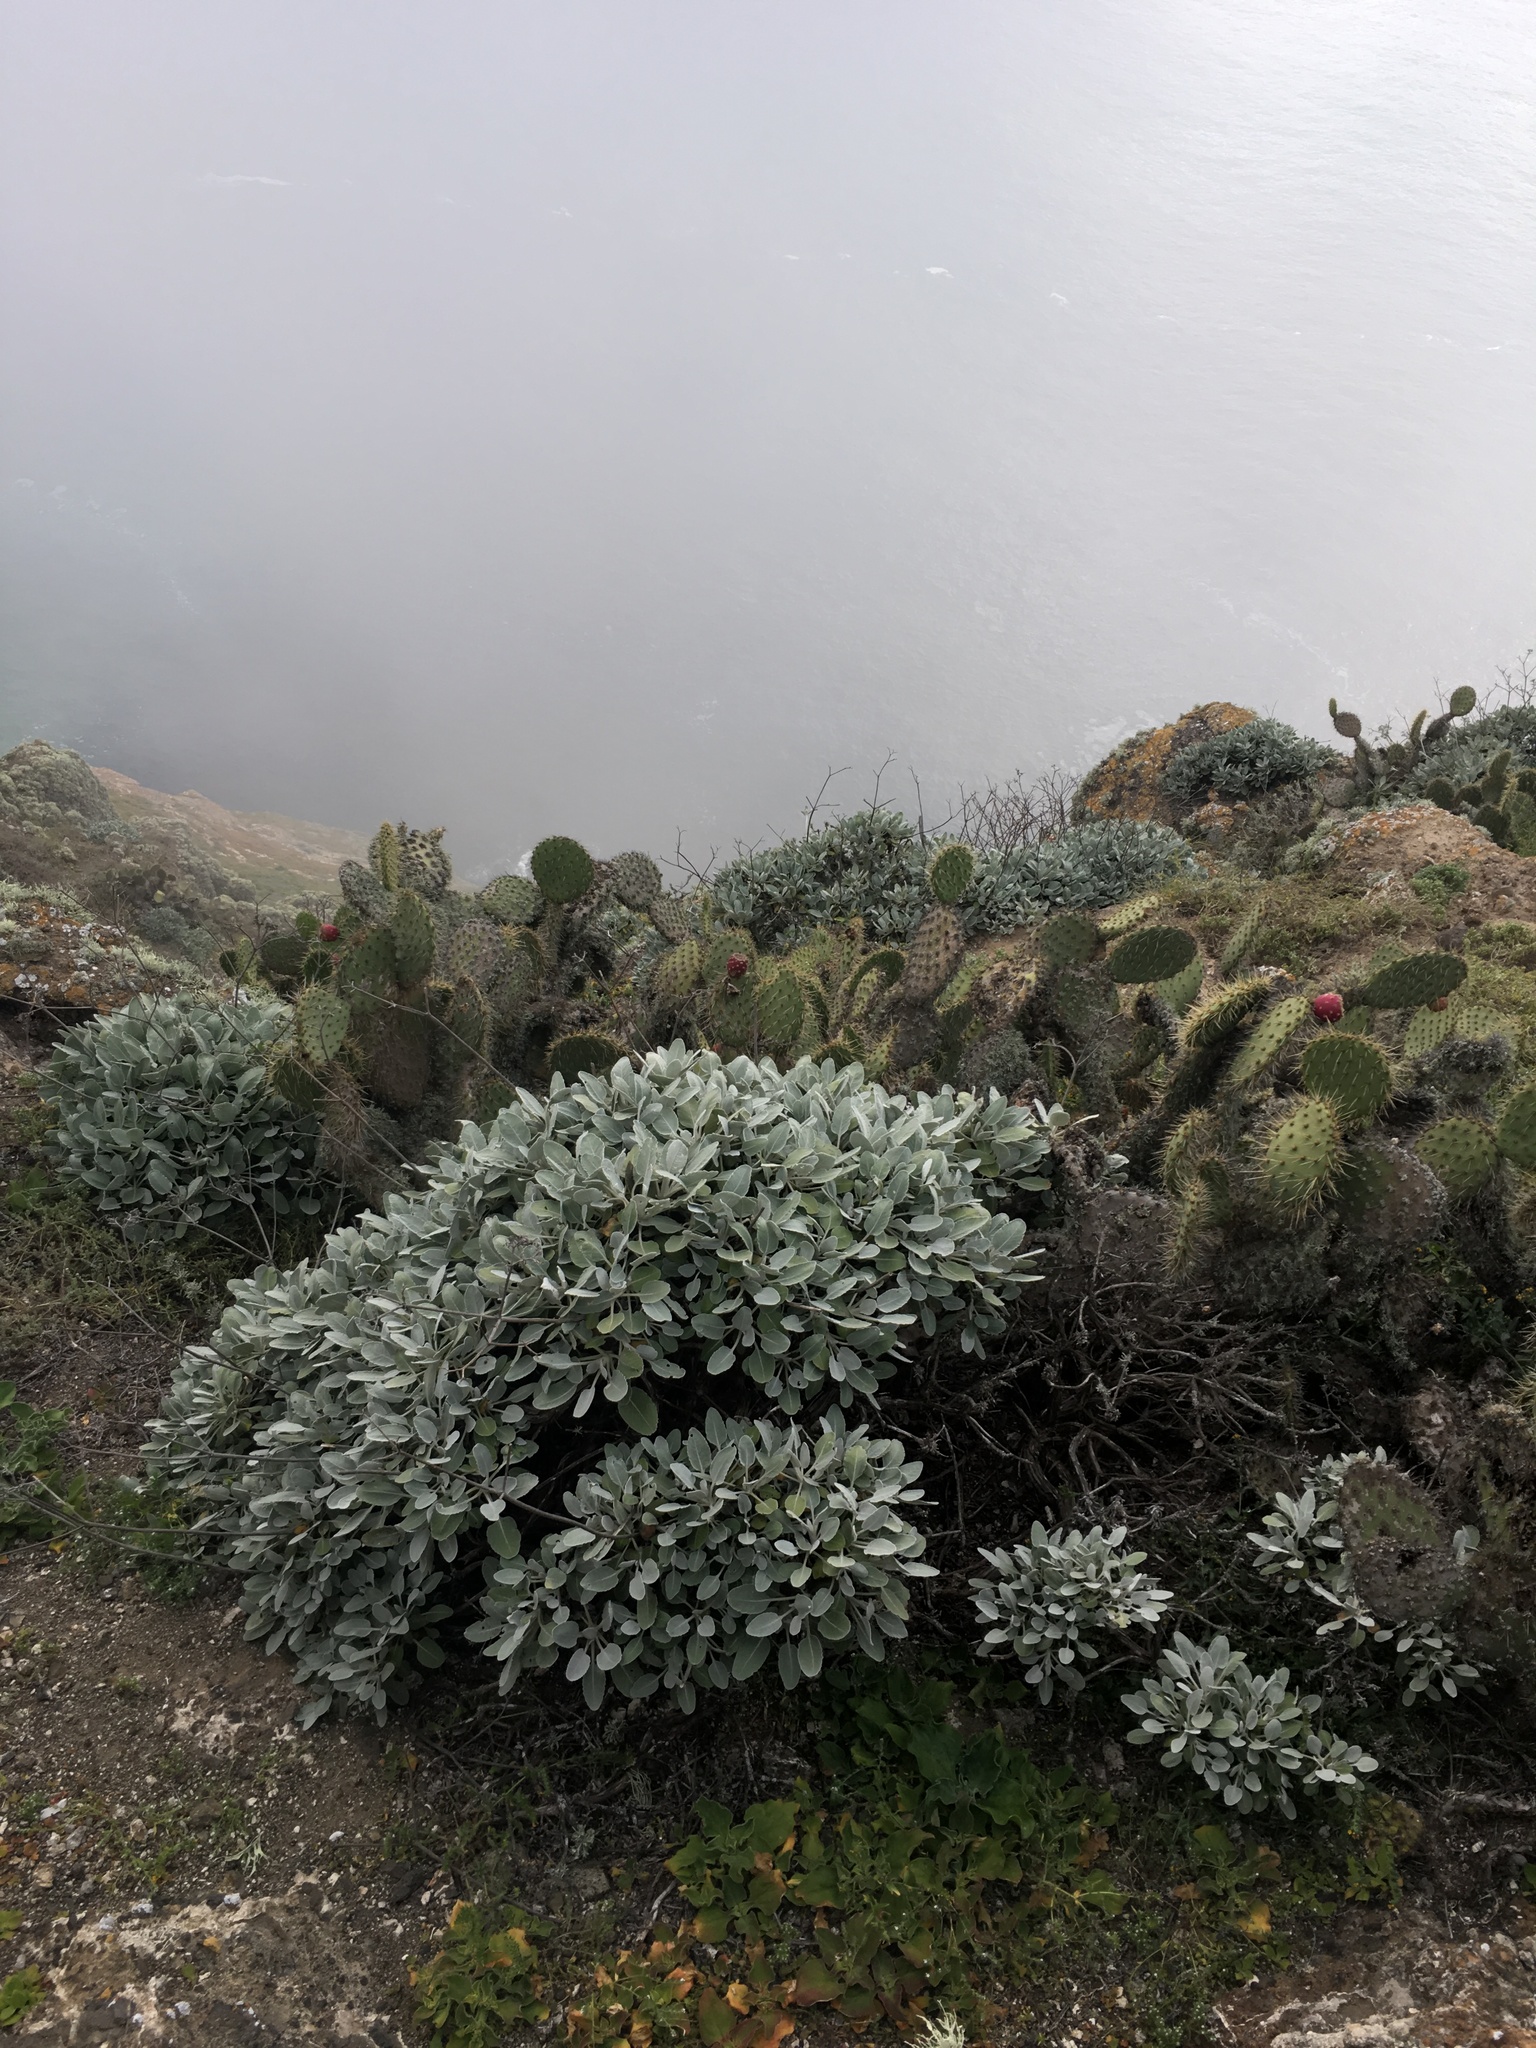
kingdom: Plantae
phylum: Tracheophyta
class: Magnoliopsida
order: Caryophyllales
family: Polygonaceae
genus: Eriogonum
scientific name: Eriogonum giganteum
